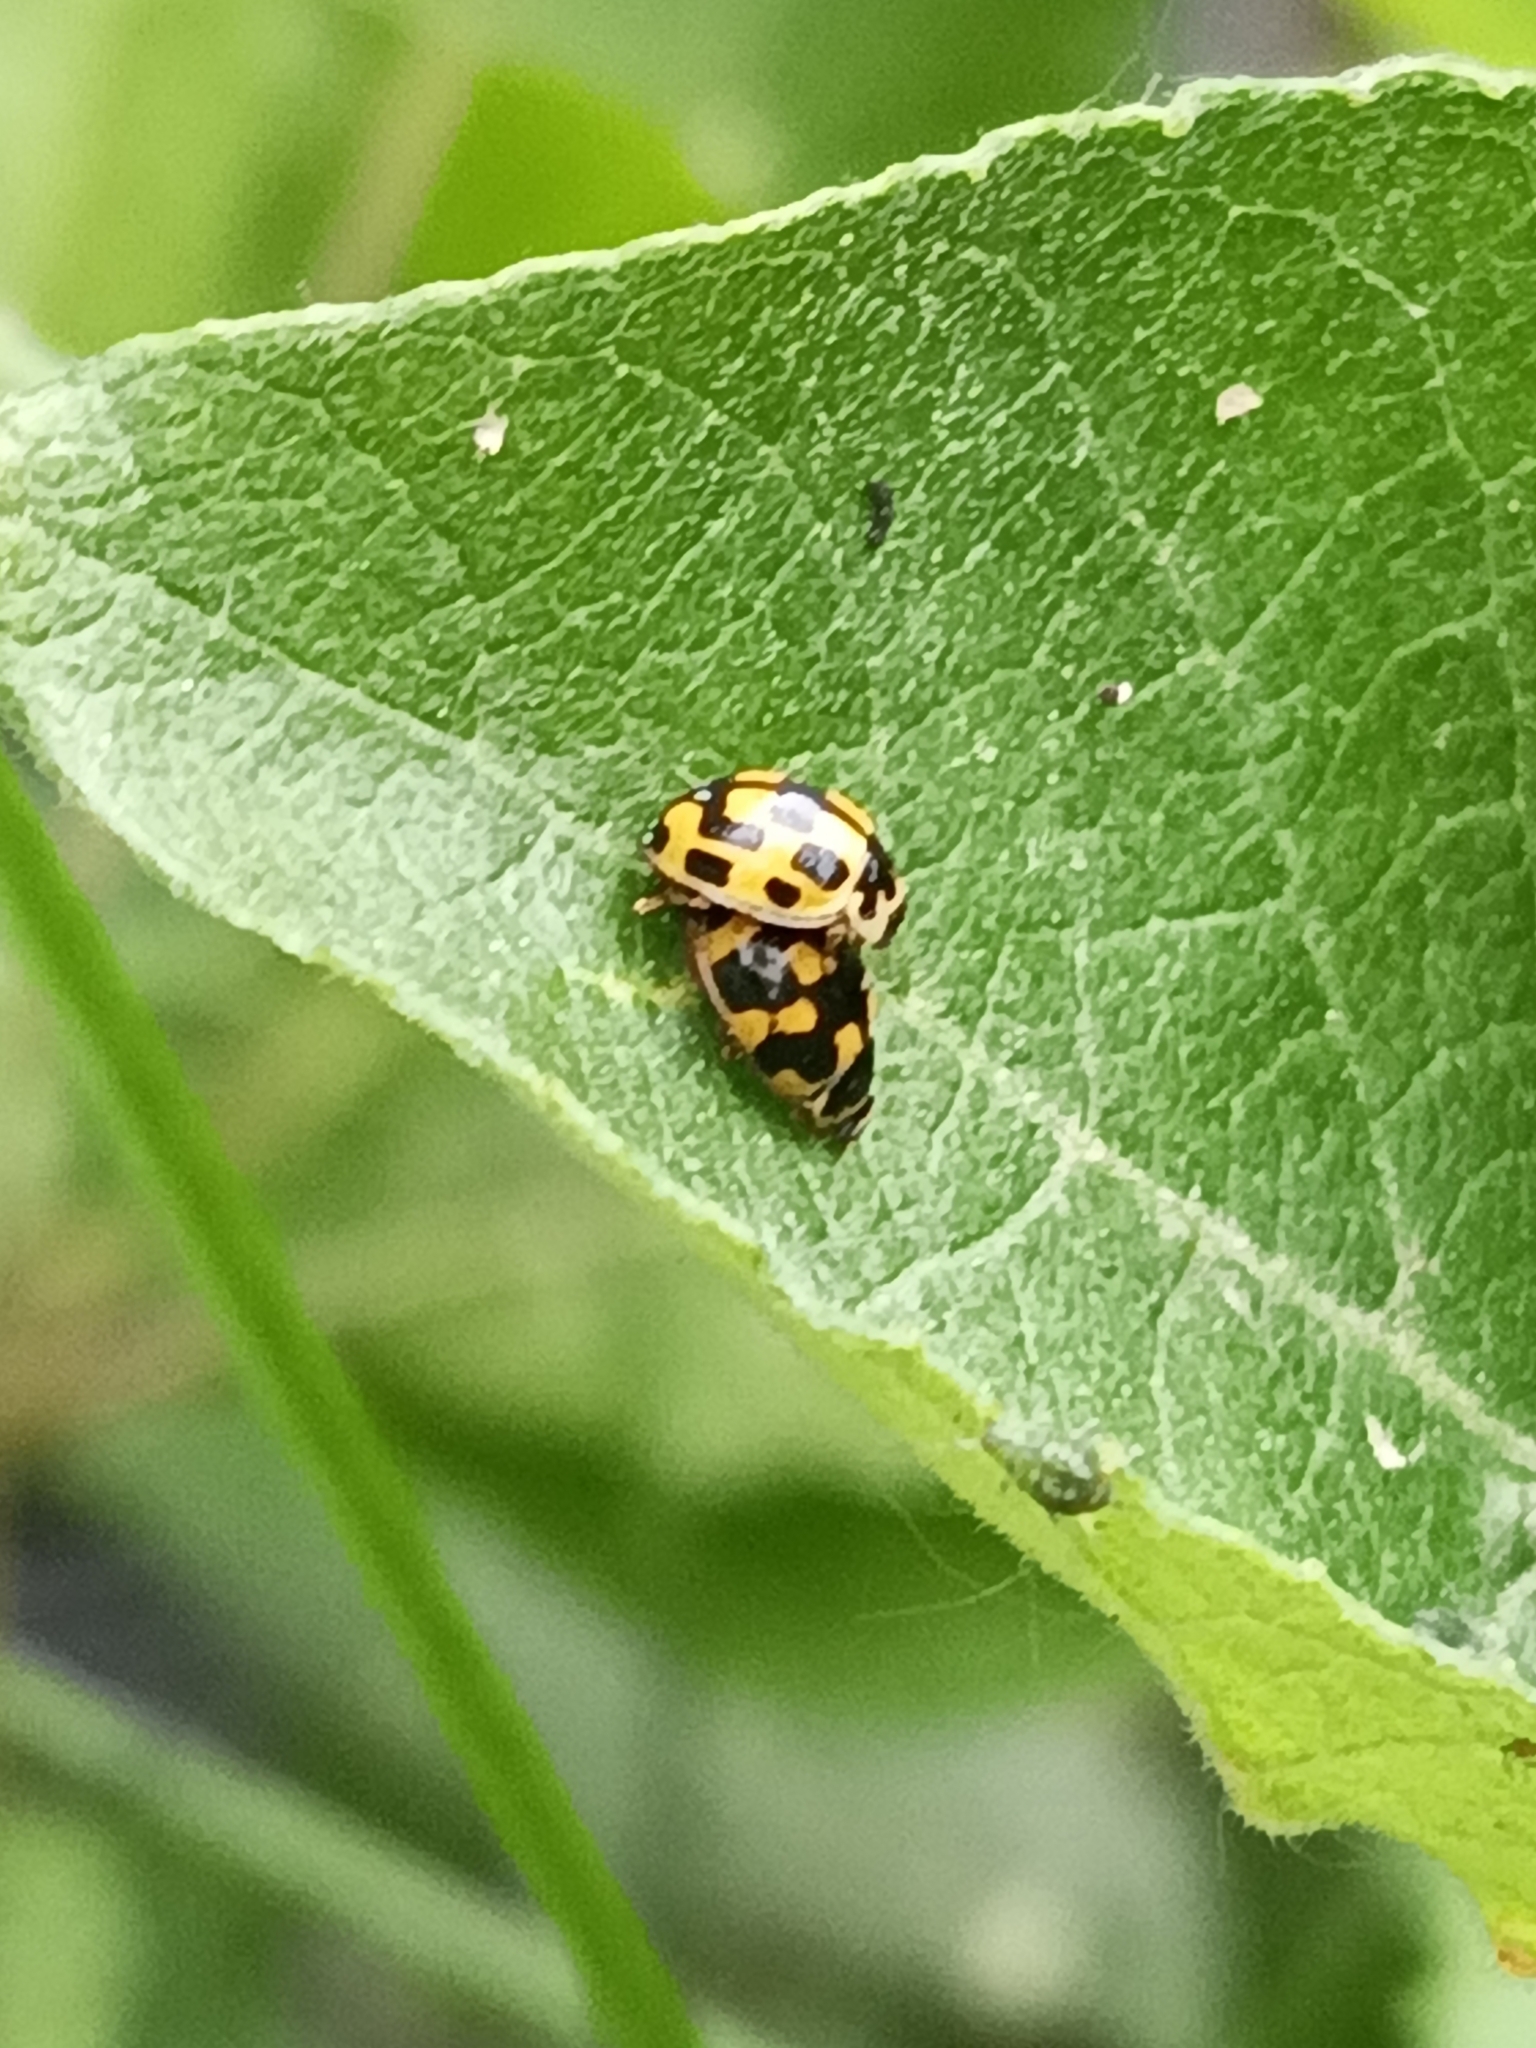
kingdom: Animalia
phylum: Arthropoda
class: Insecta
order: Coleoptera
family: Coccinellidae
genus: Propylaea
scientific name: Propylaea quatuordecimpunctata
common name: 14-spotted ladybird beetle
